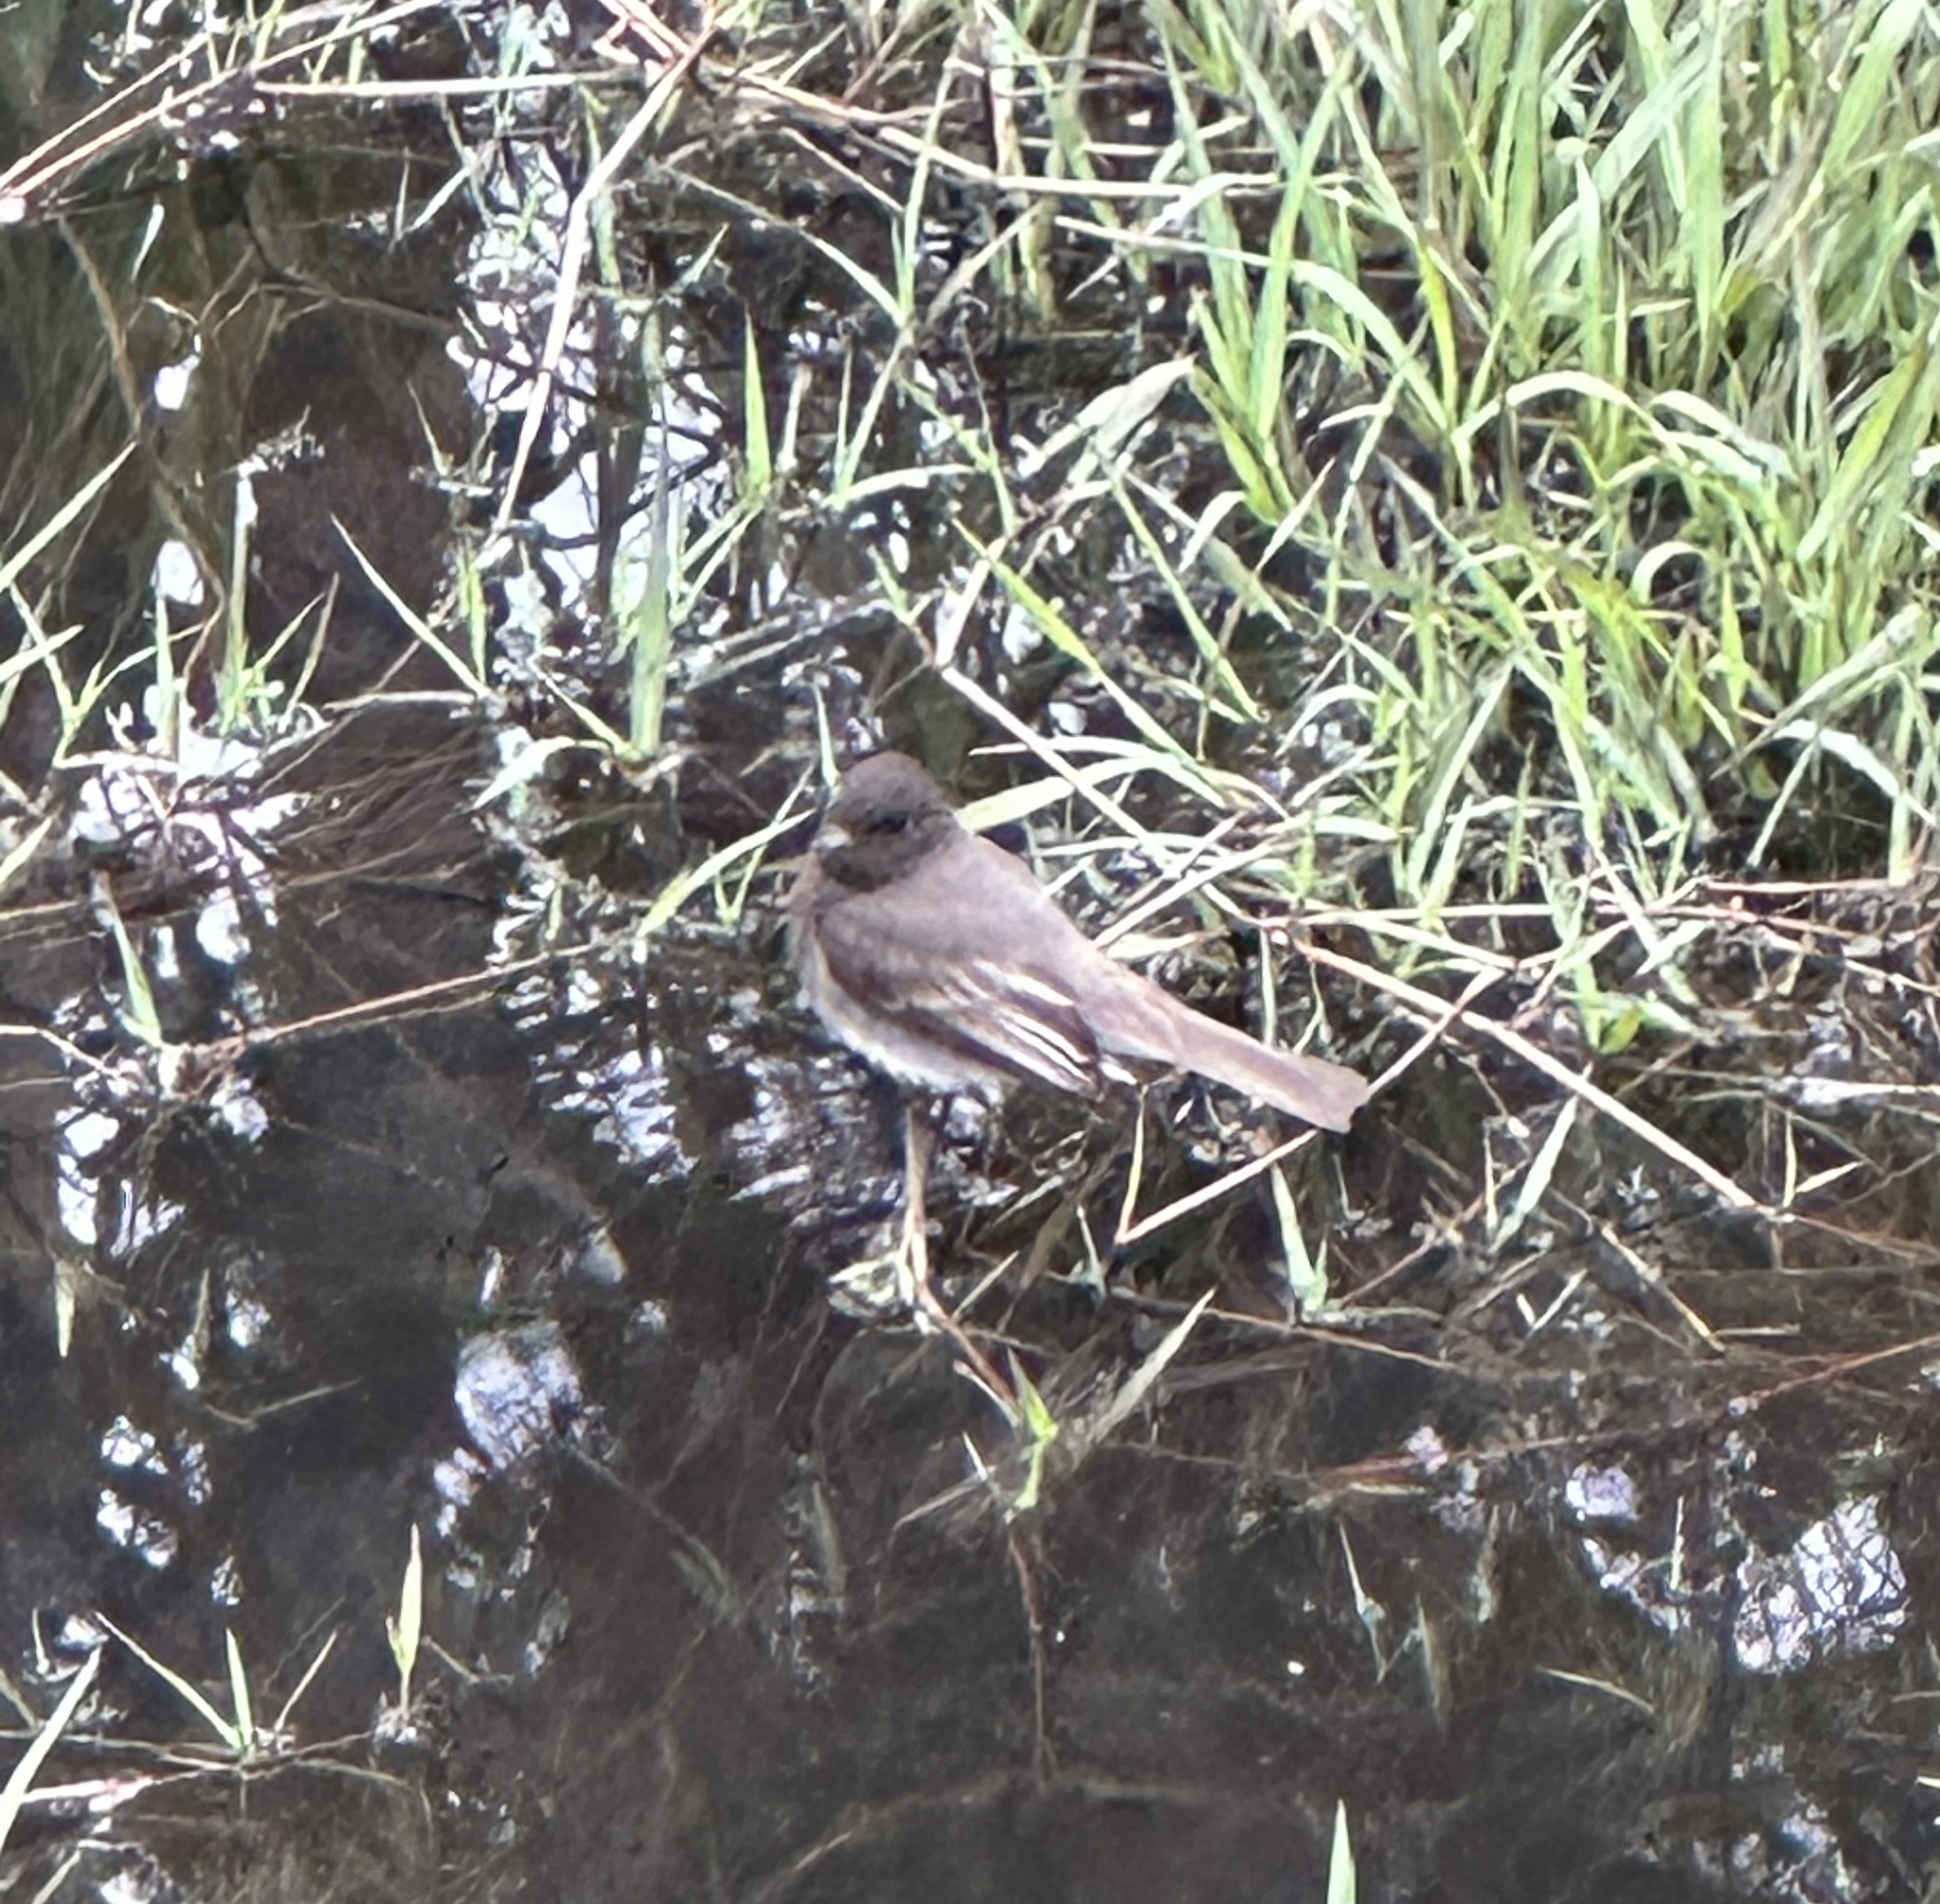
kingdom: Animalia
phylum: Chordata
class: Aves
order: Passeriformes
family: Tyrannidae
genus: Sayornis
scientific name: Sayornis nigricans
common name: Black phoebe
